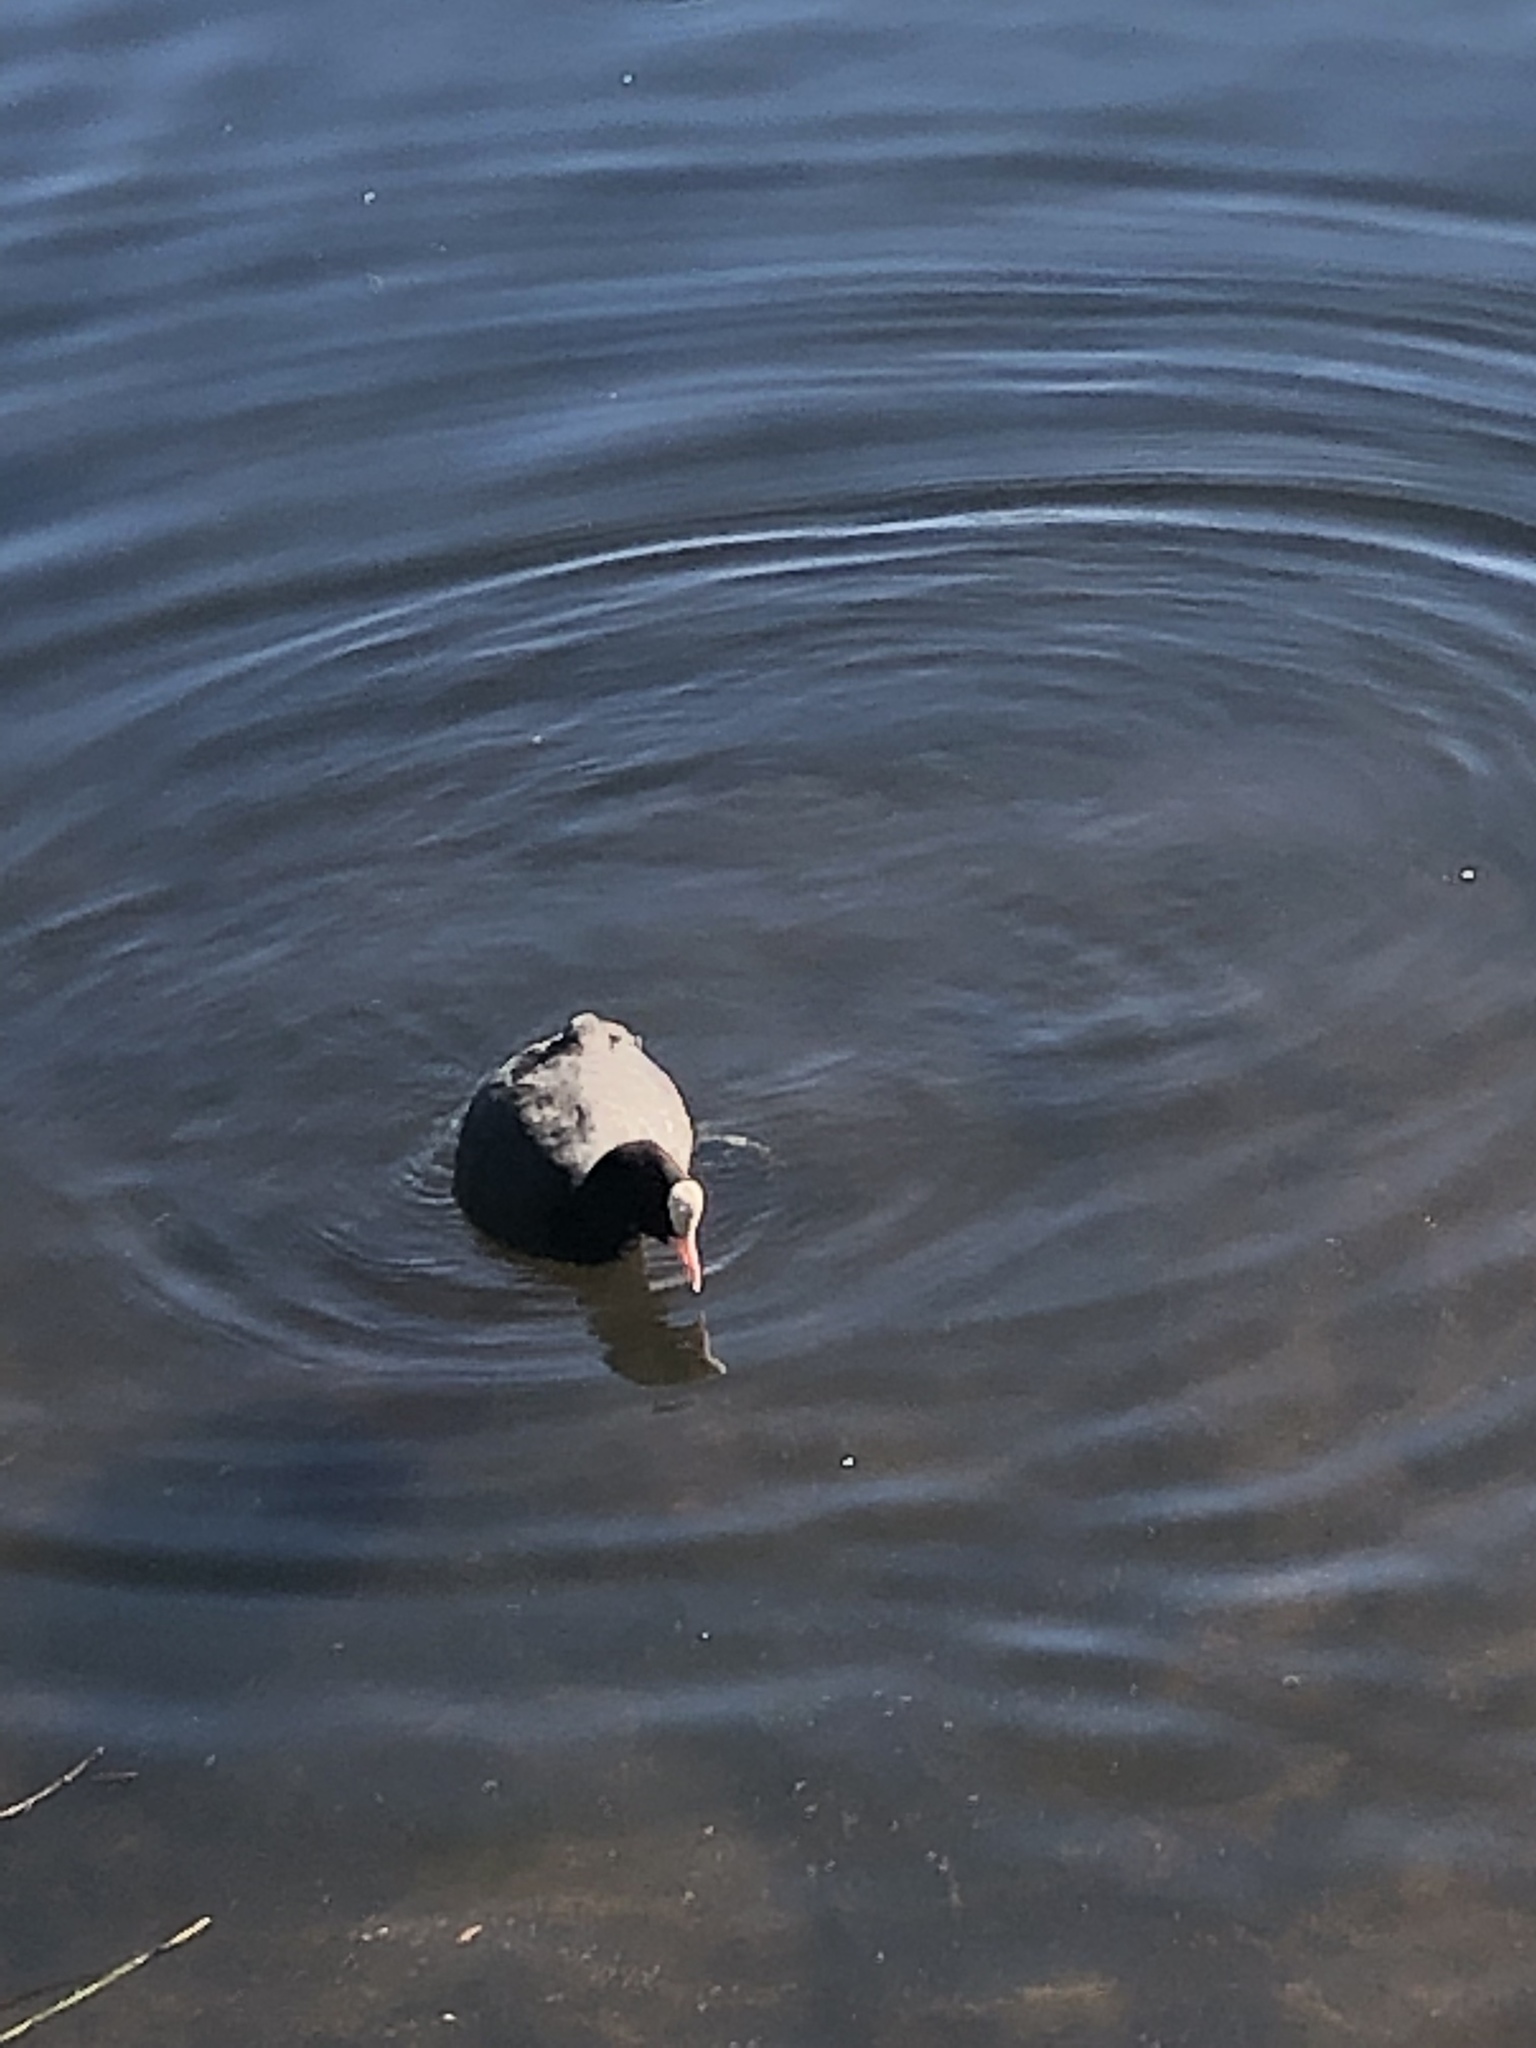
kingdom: Animalia
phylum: Chordata
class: Aves
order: Gruiformes
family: Rallidae
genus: Fulica
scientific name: Fulica atra
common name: Eurasian coot
